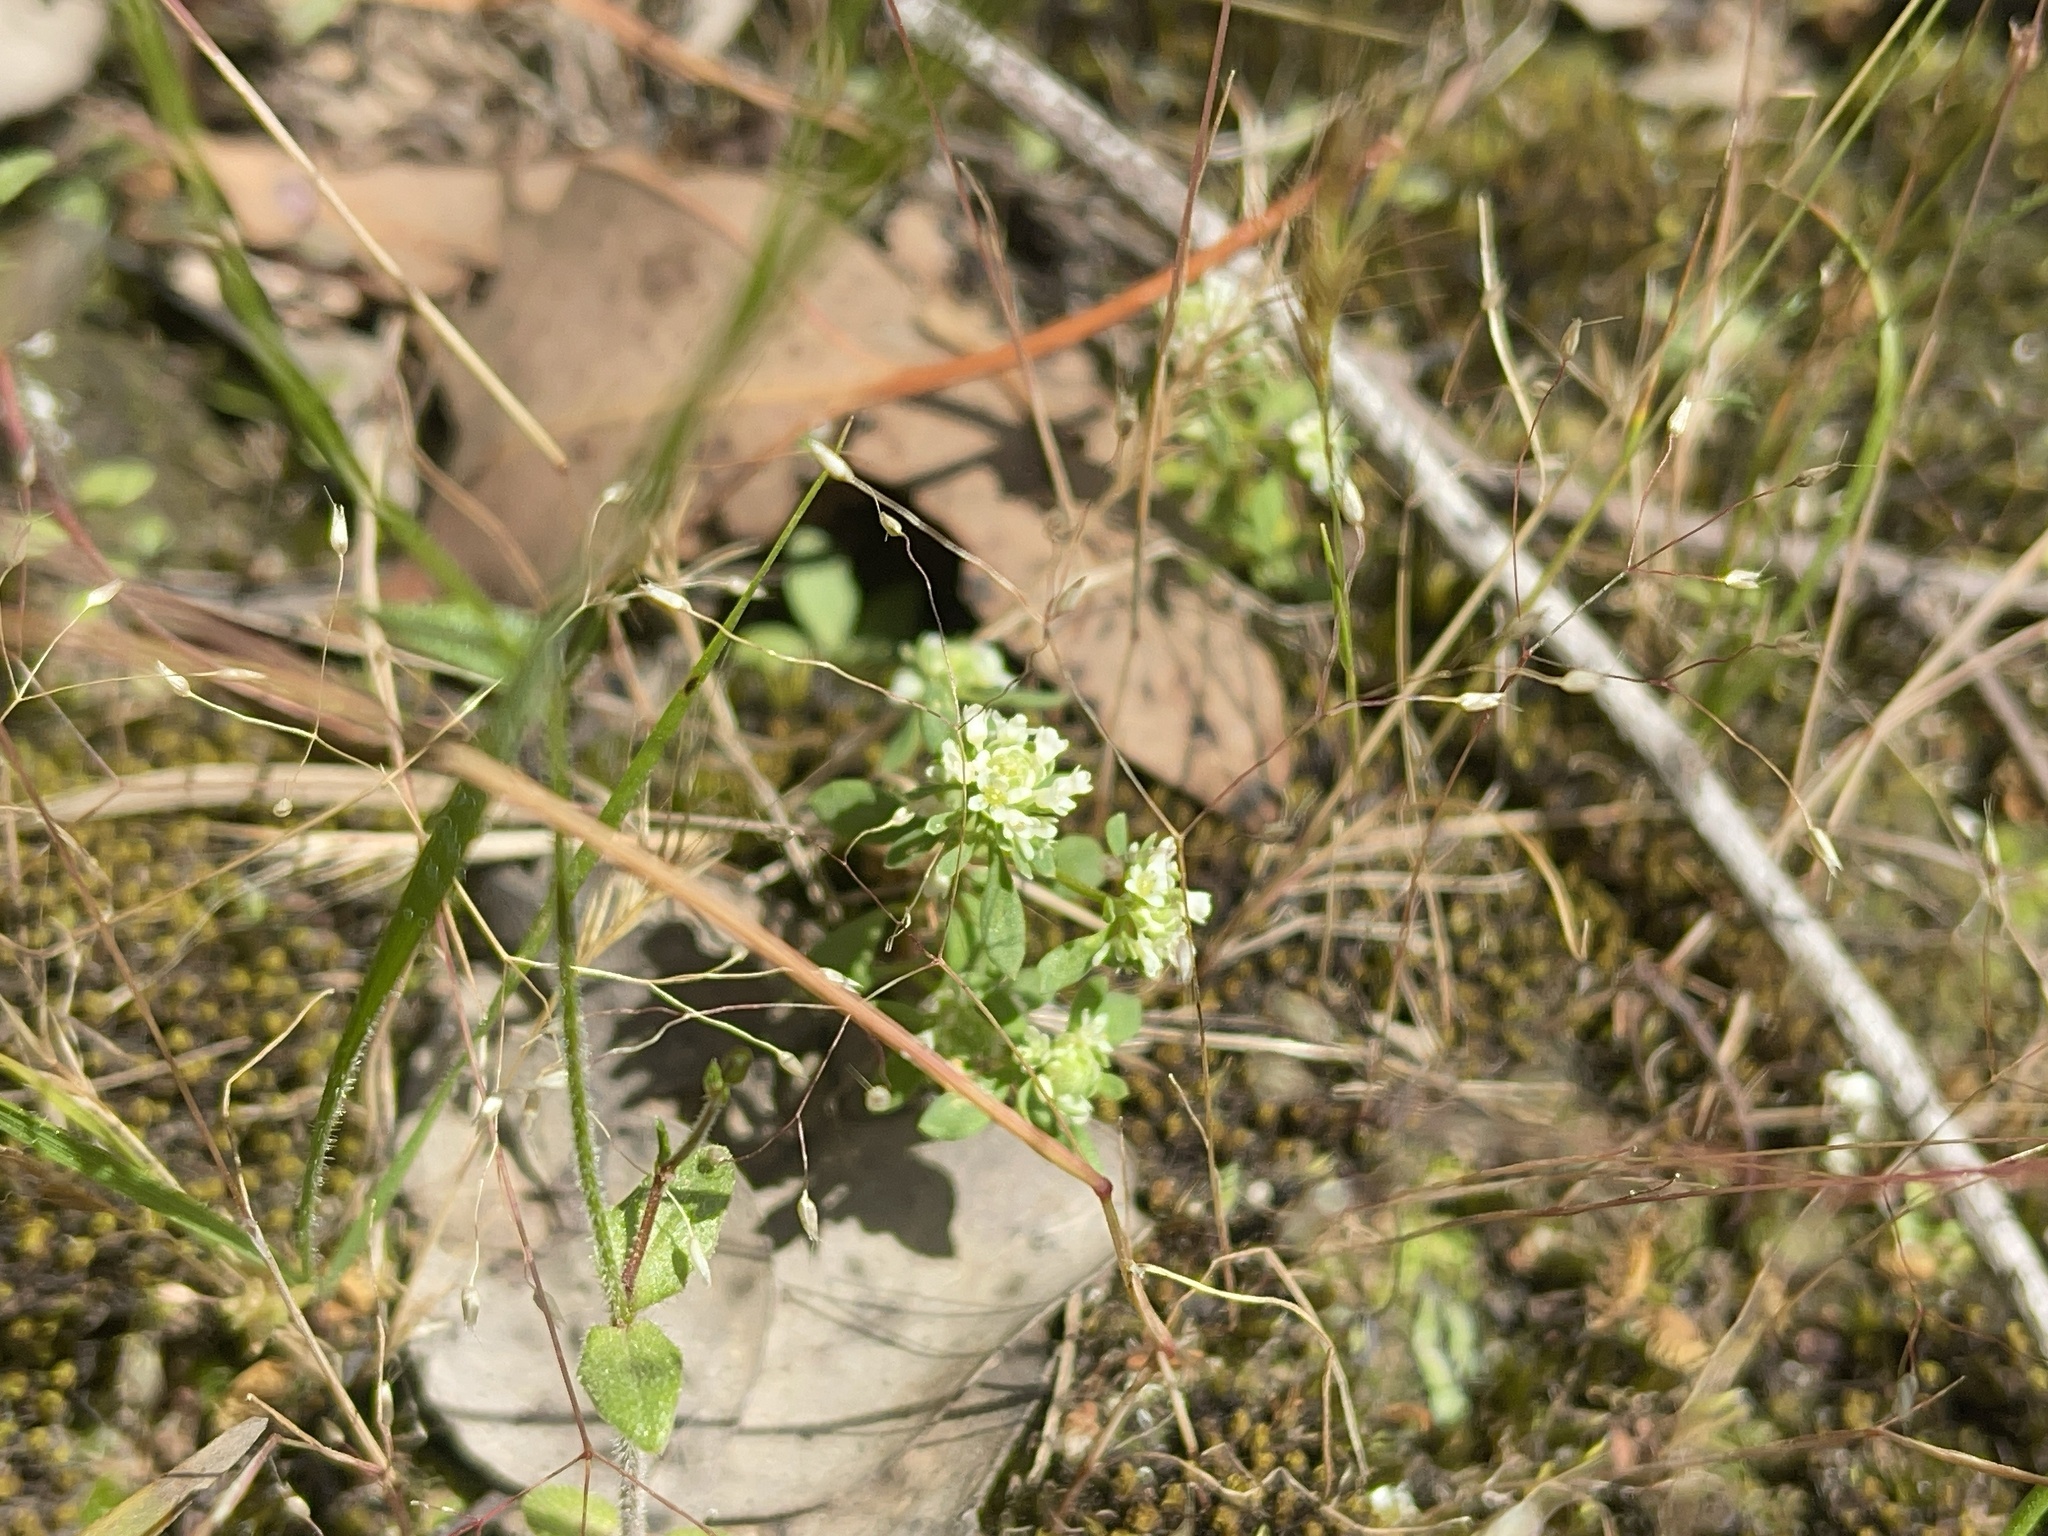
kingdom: Plantae
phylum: Tracheophyta
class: Magnoliopsida
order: Malpighiales
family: Phyllanthaceae
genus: Poranthera
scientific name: Poranthera microphylla
